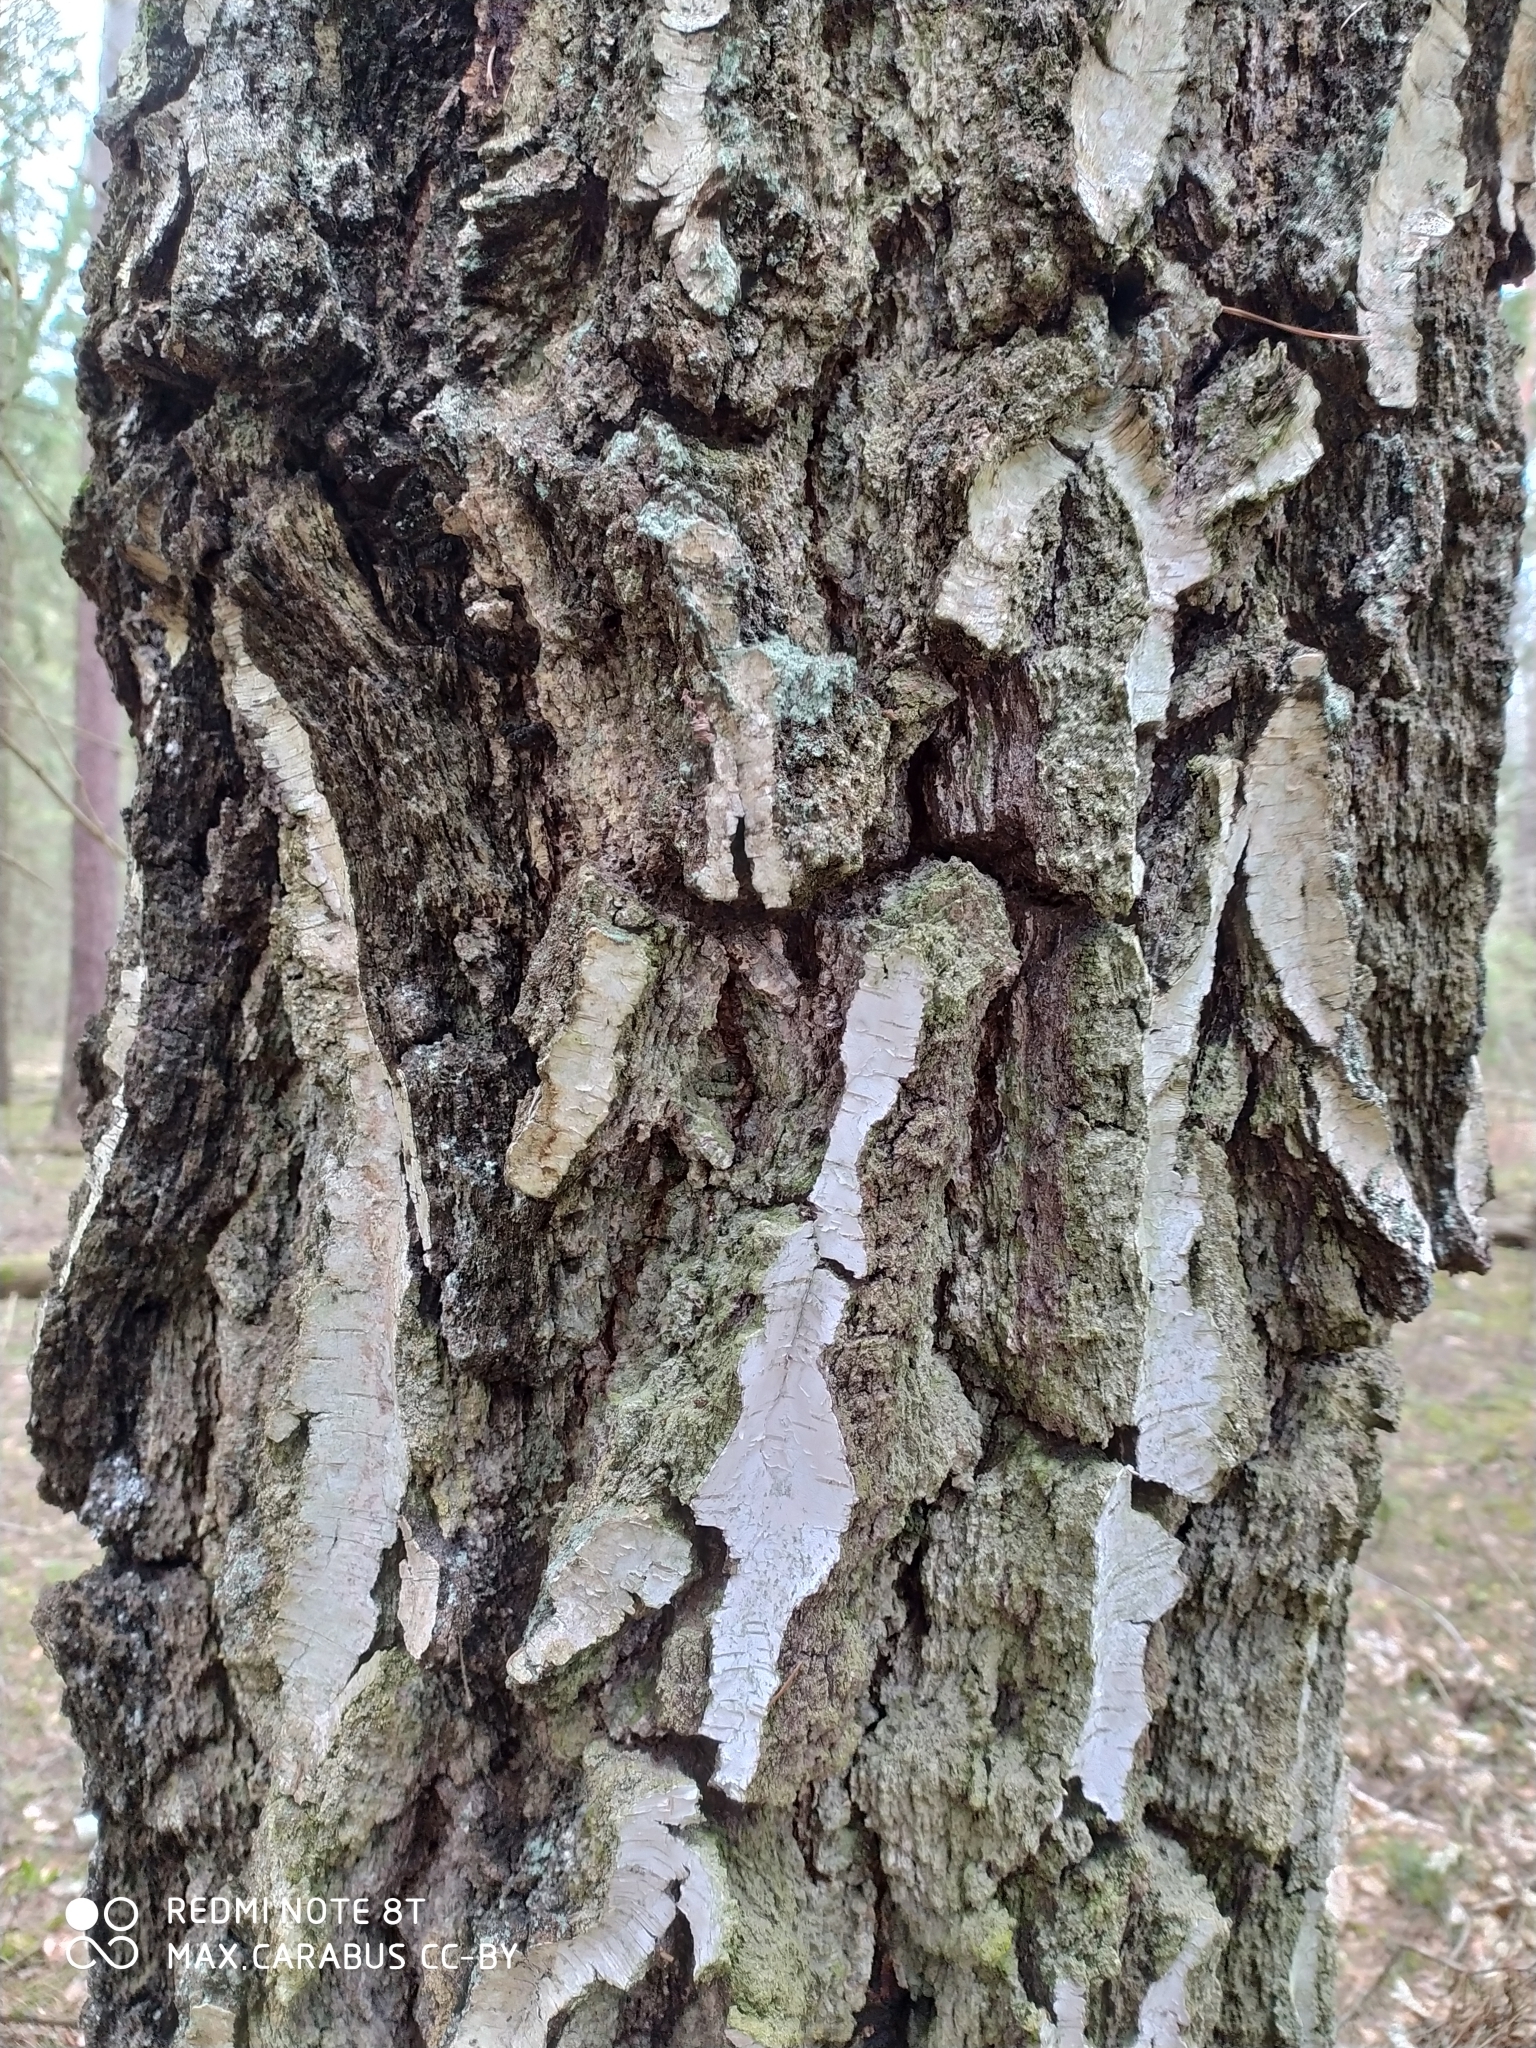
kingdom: Plantae
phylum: Tracheophyta
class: Magnoliopsida
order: Fagales
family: Betulaceae
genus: Betula
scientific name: Betula pendula
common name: Silver birch
